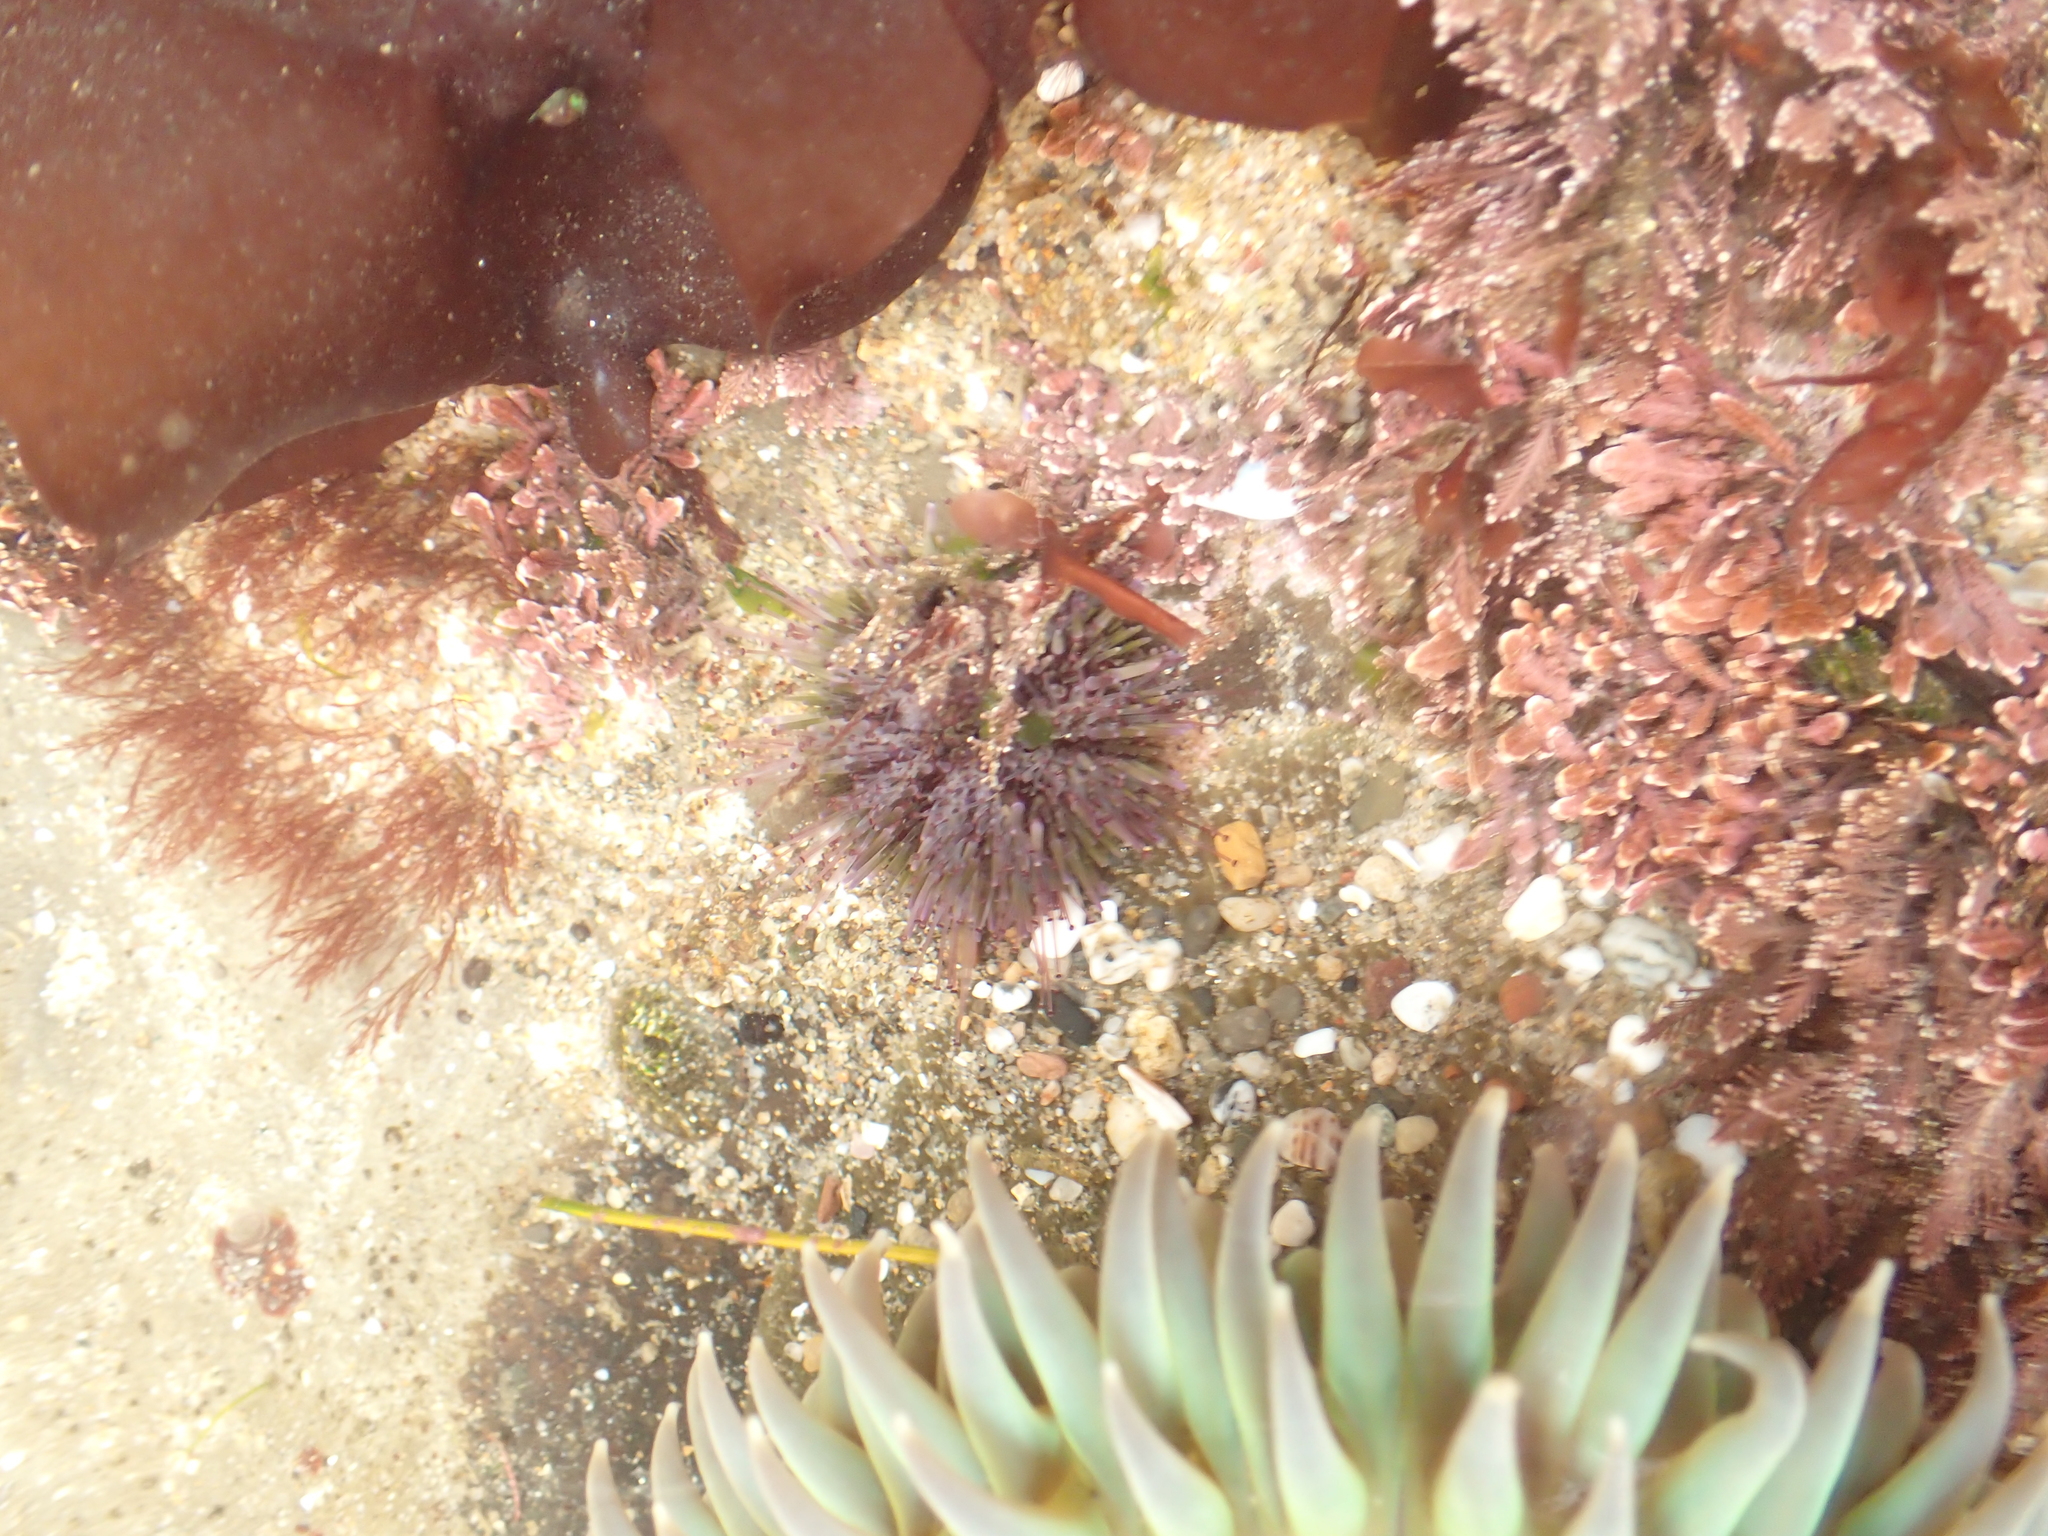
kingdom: Animalia
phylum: Echinodermata
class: Echinoidea
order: Camarodonta
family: Strongylocentrotidae
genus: Strongylocentrotus
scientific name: Strongylocentrotus purpuratus
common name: Purple sea urchin
